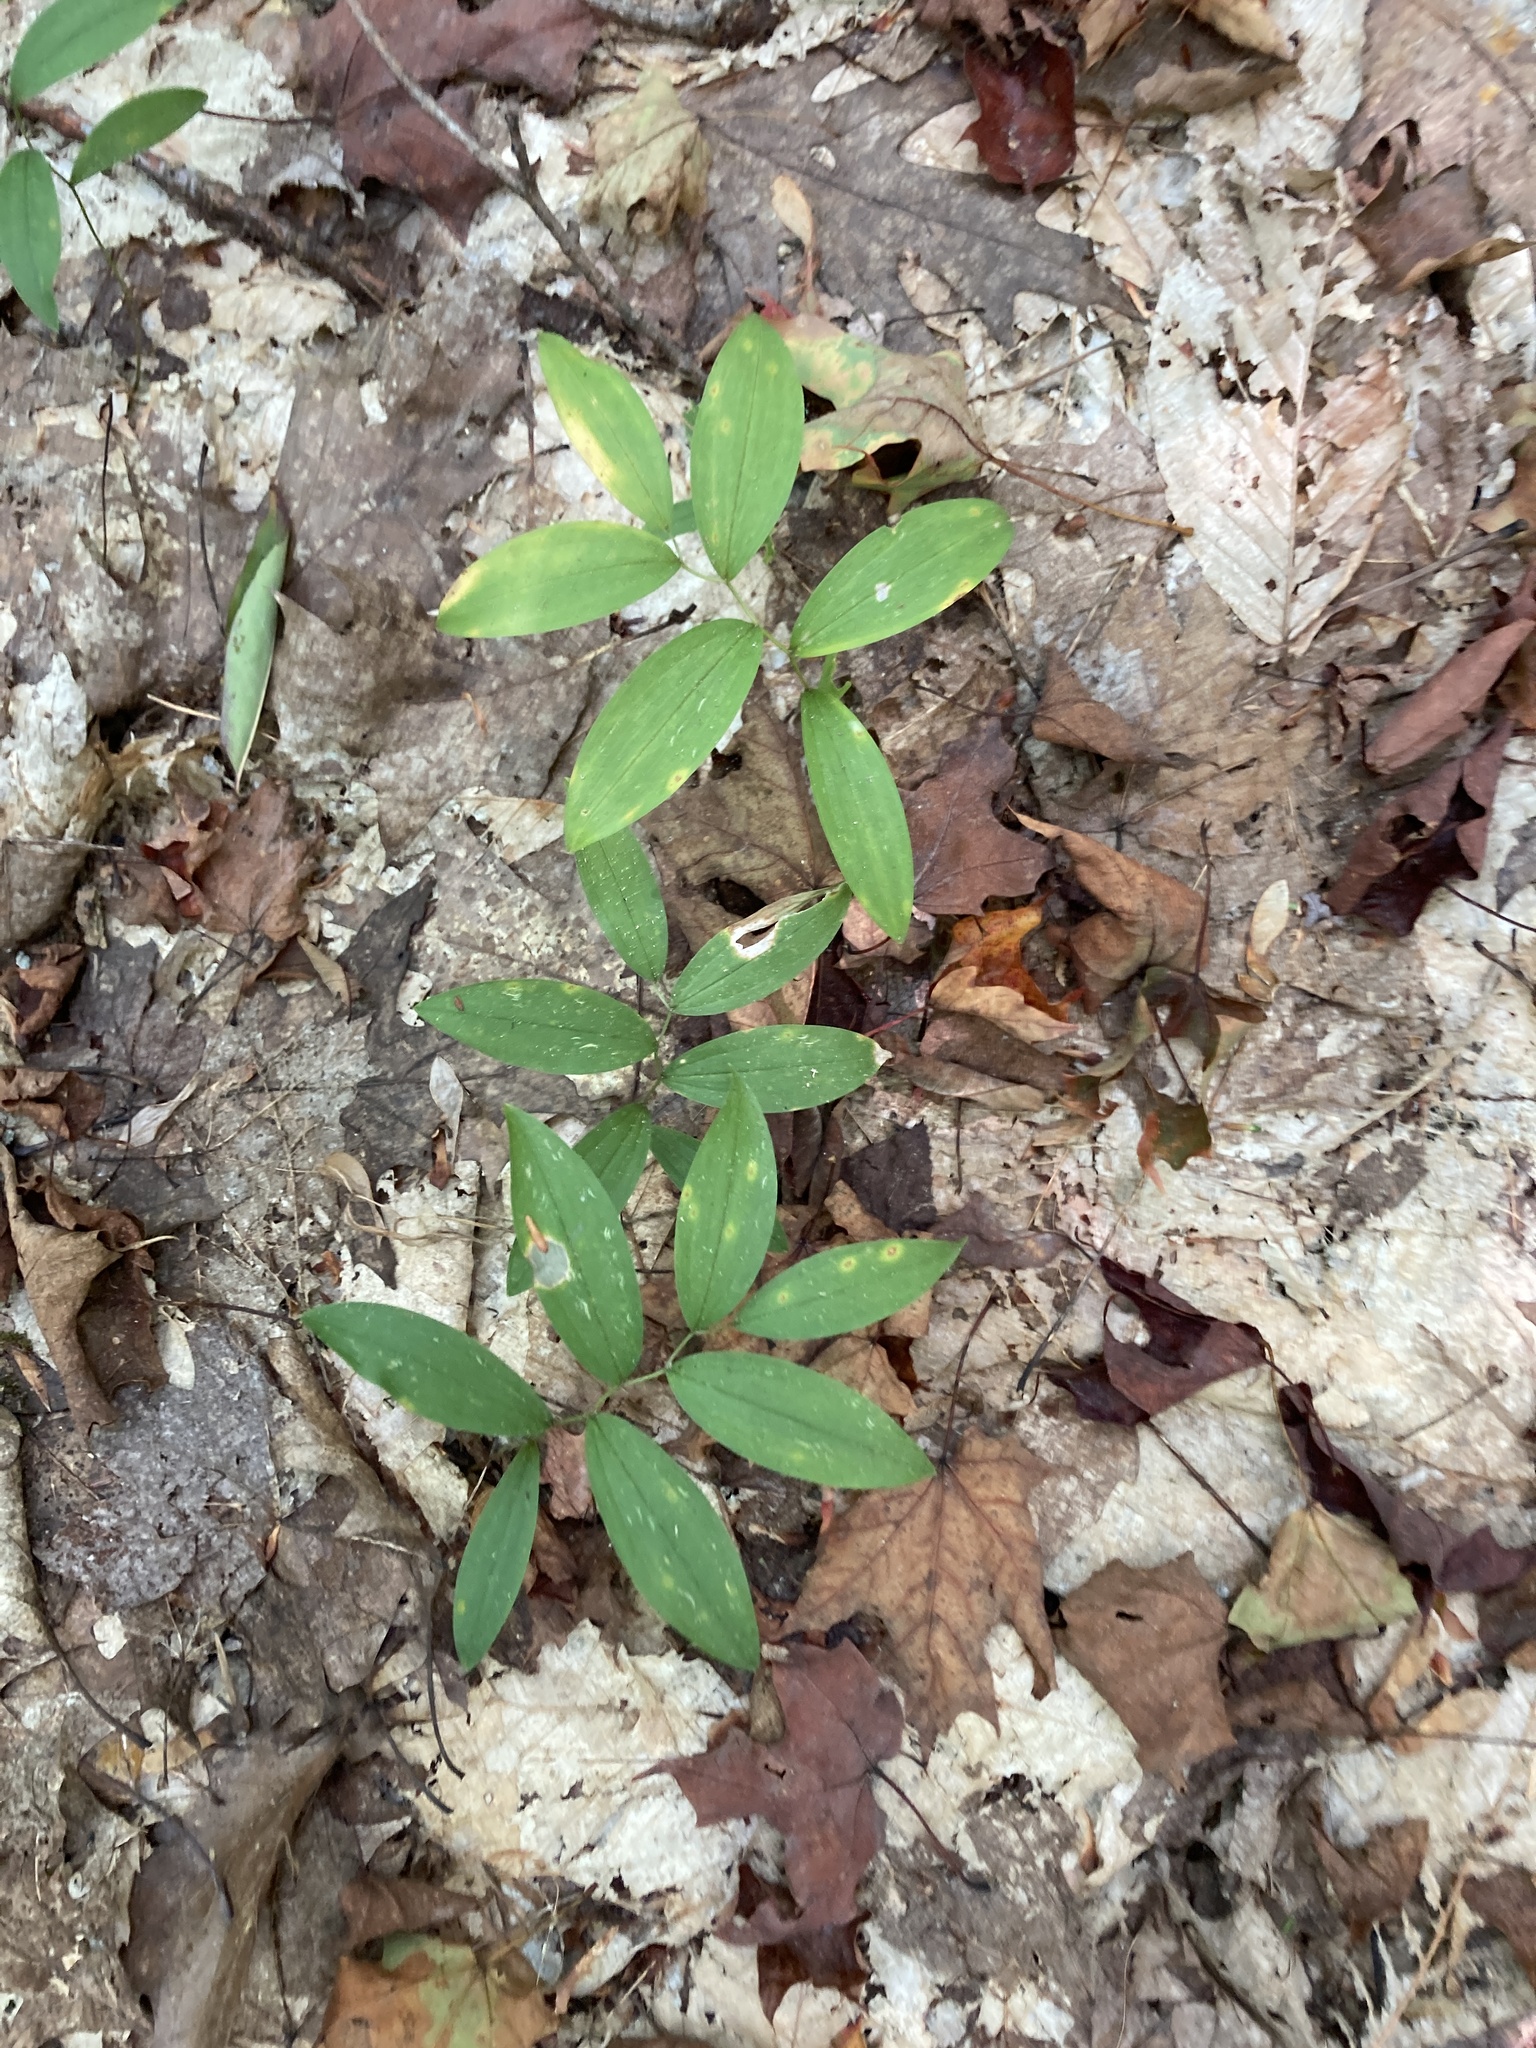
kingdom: Plantae
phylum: Tracheophyta
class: Liliopsida
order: Liliales
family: Colchicaceae
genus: Uvularia
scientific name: Uvularia sessilifolia
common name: Straw-lily
